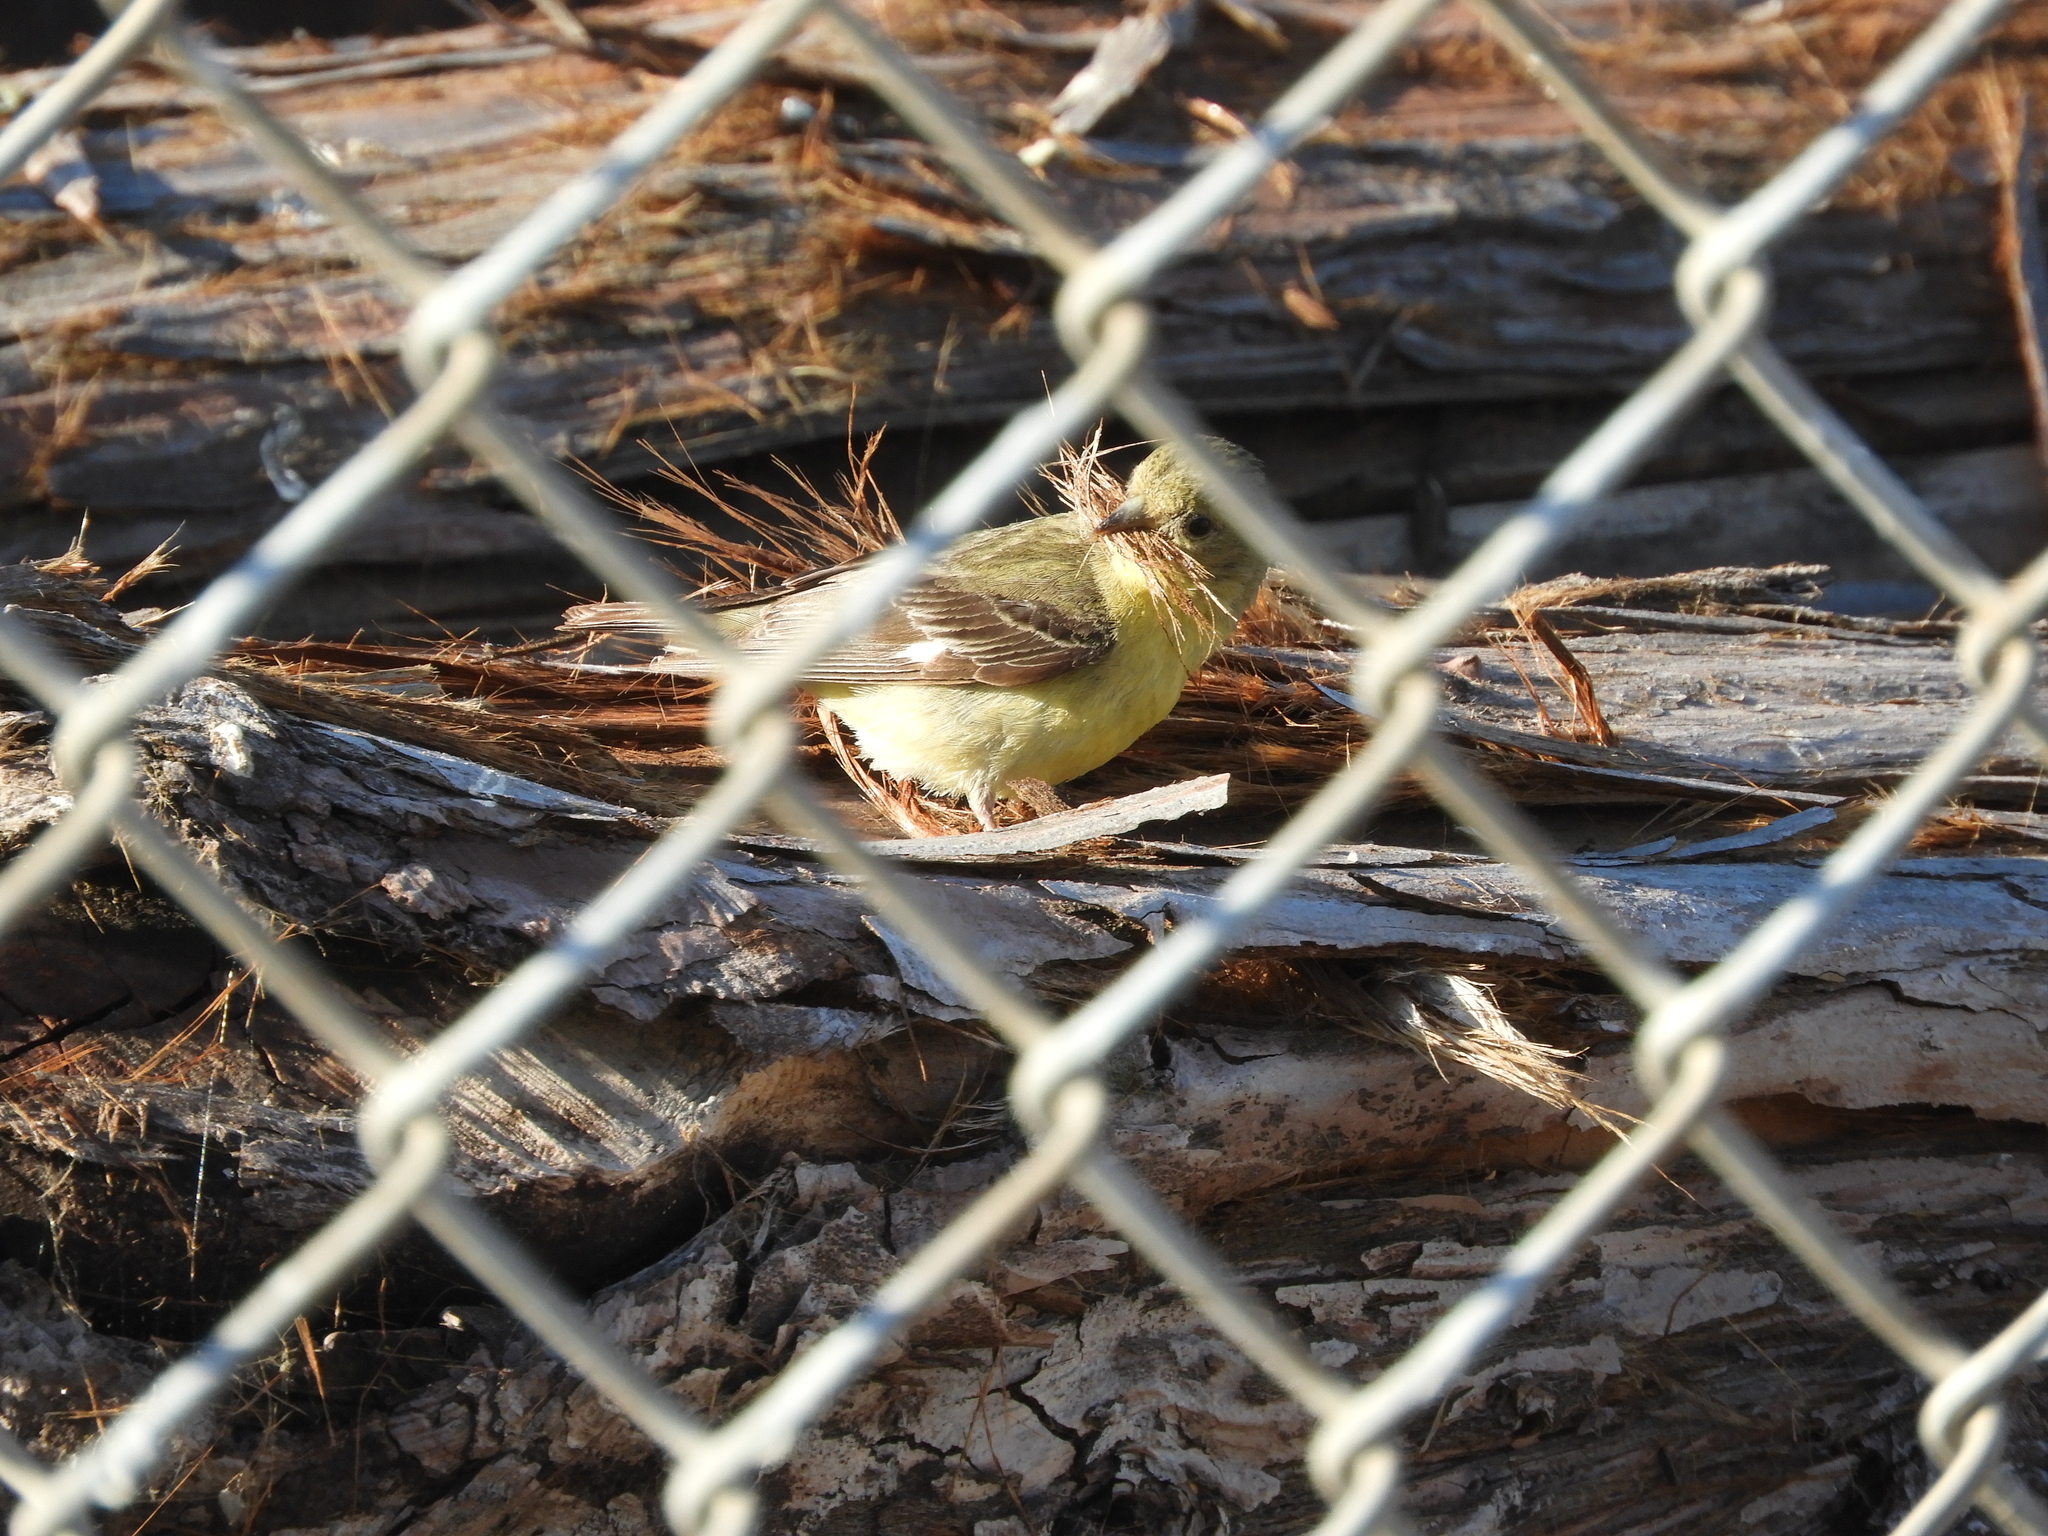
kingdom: Animalia
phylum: Chordata
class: Aves
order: Passeriformes
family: Fringillidae
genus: Spinus
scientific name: Spinus psaltria
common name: Lesser goldfinch
